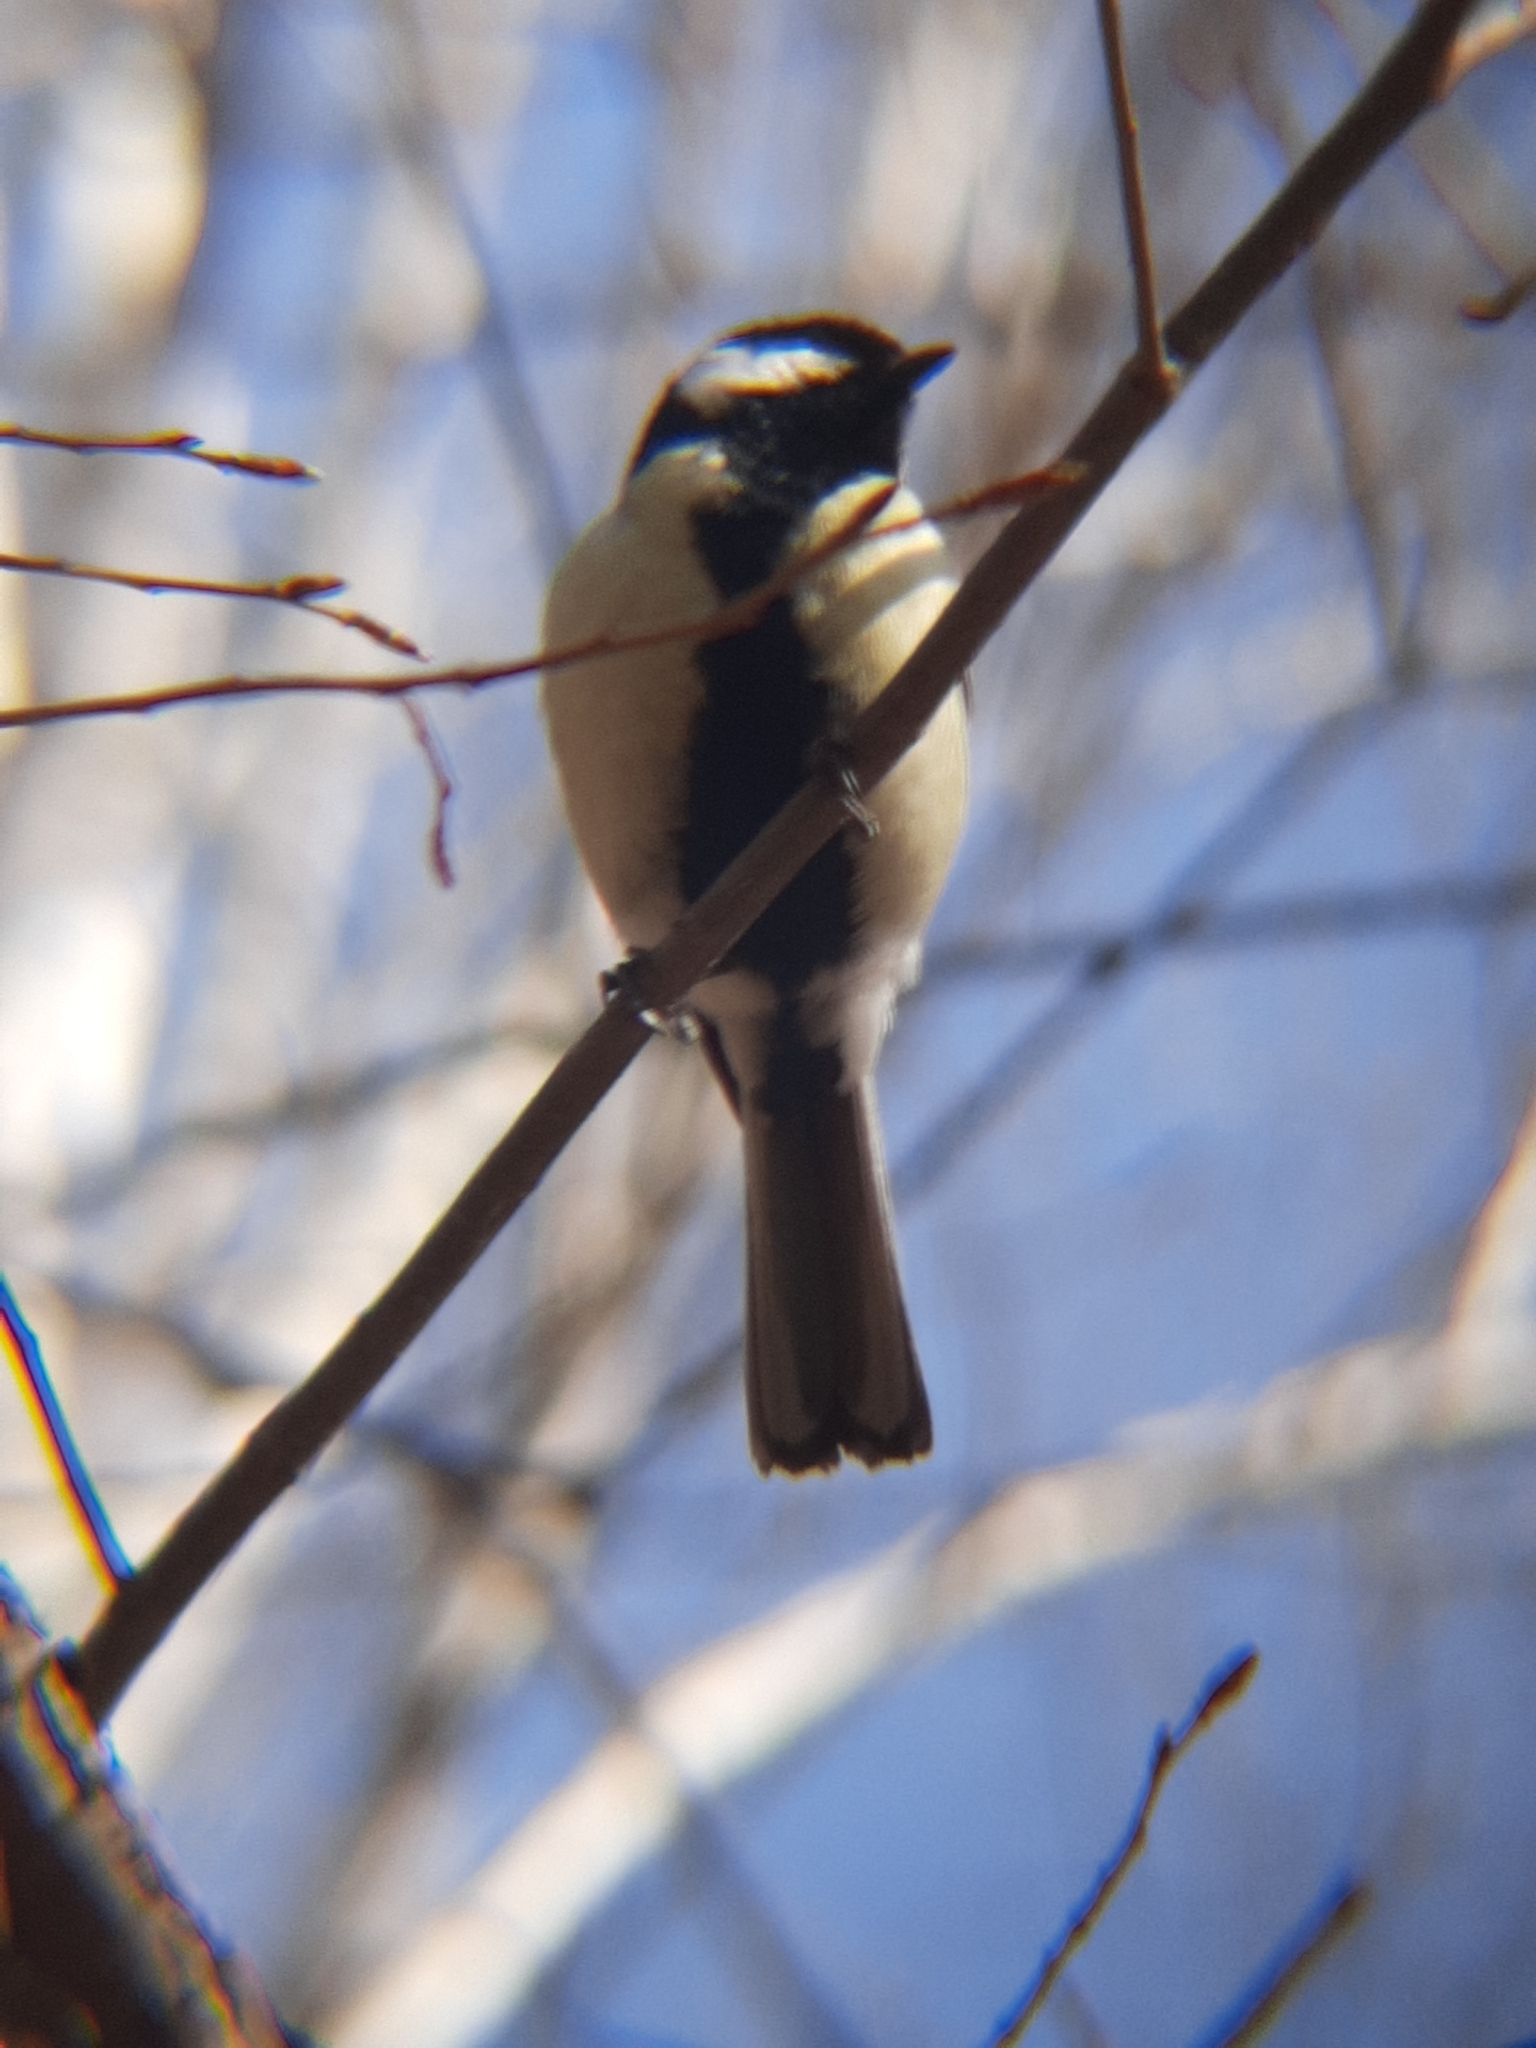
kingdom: Animalia
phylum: Chordata
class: Aves
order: Passeriformes
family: Paridae
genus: Parus
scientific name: Parus major
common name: Great tit
